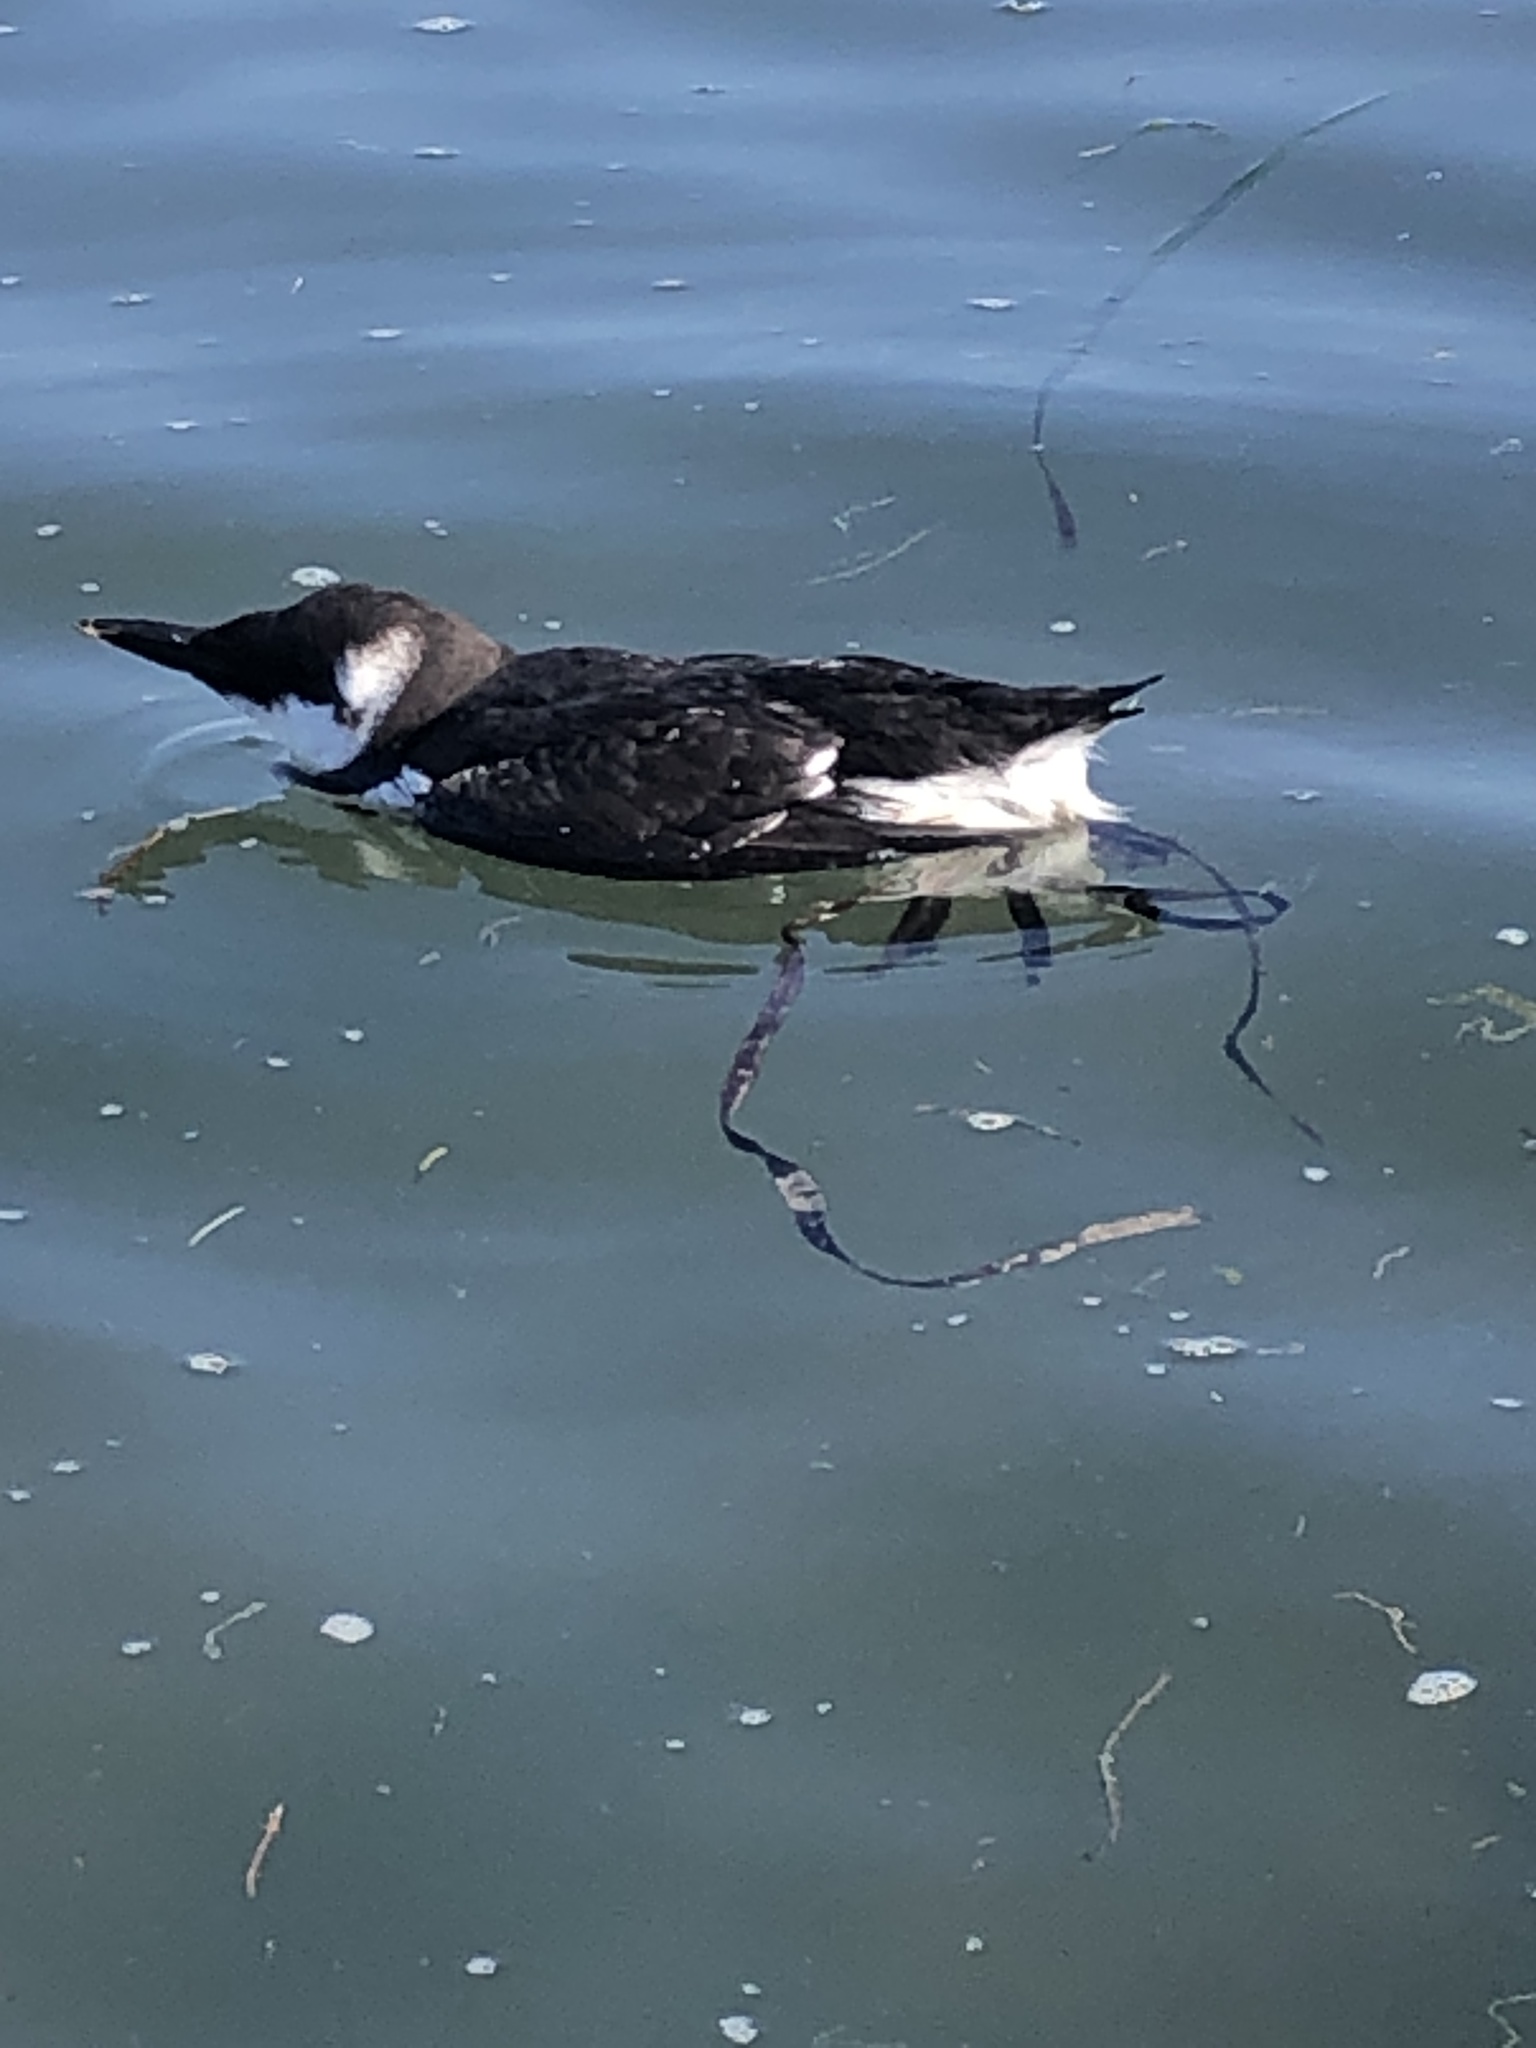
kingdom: Animalia
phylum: Chordata
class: Aves
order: Charadriiformes
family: Alcidae
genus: Uria
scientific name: Uria aalge
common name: Common murre
